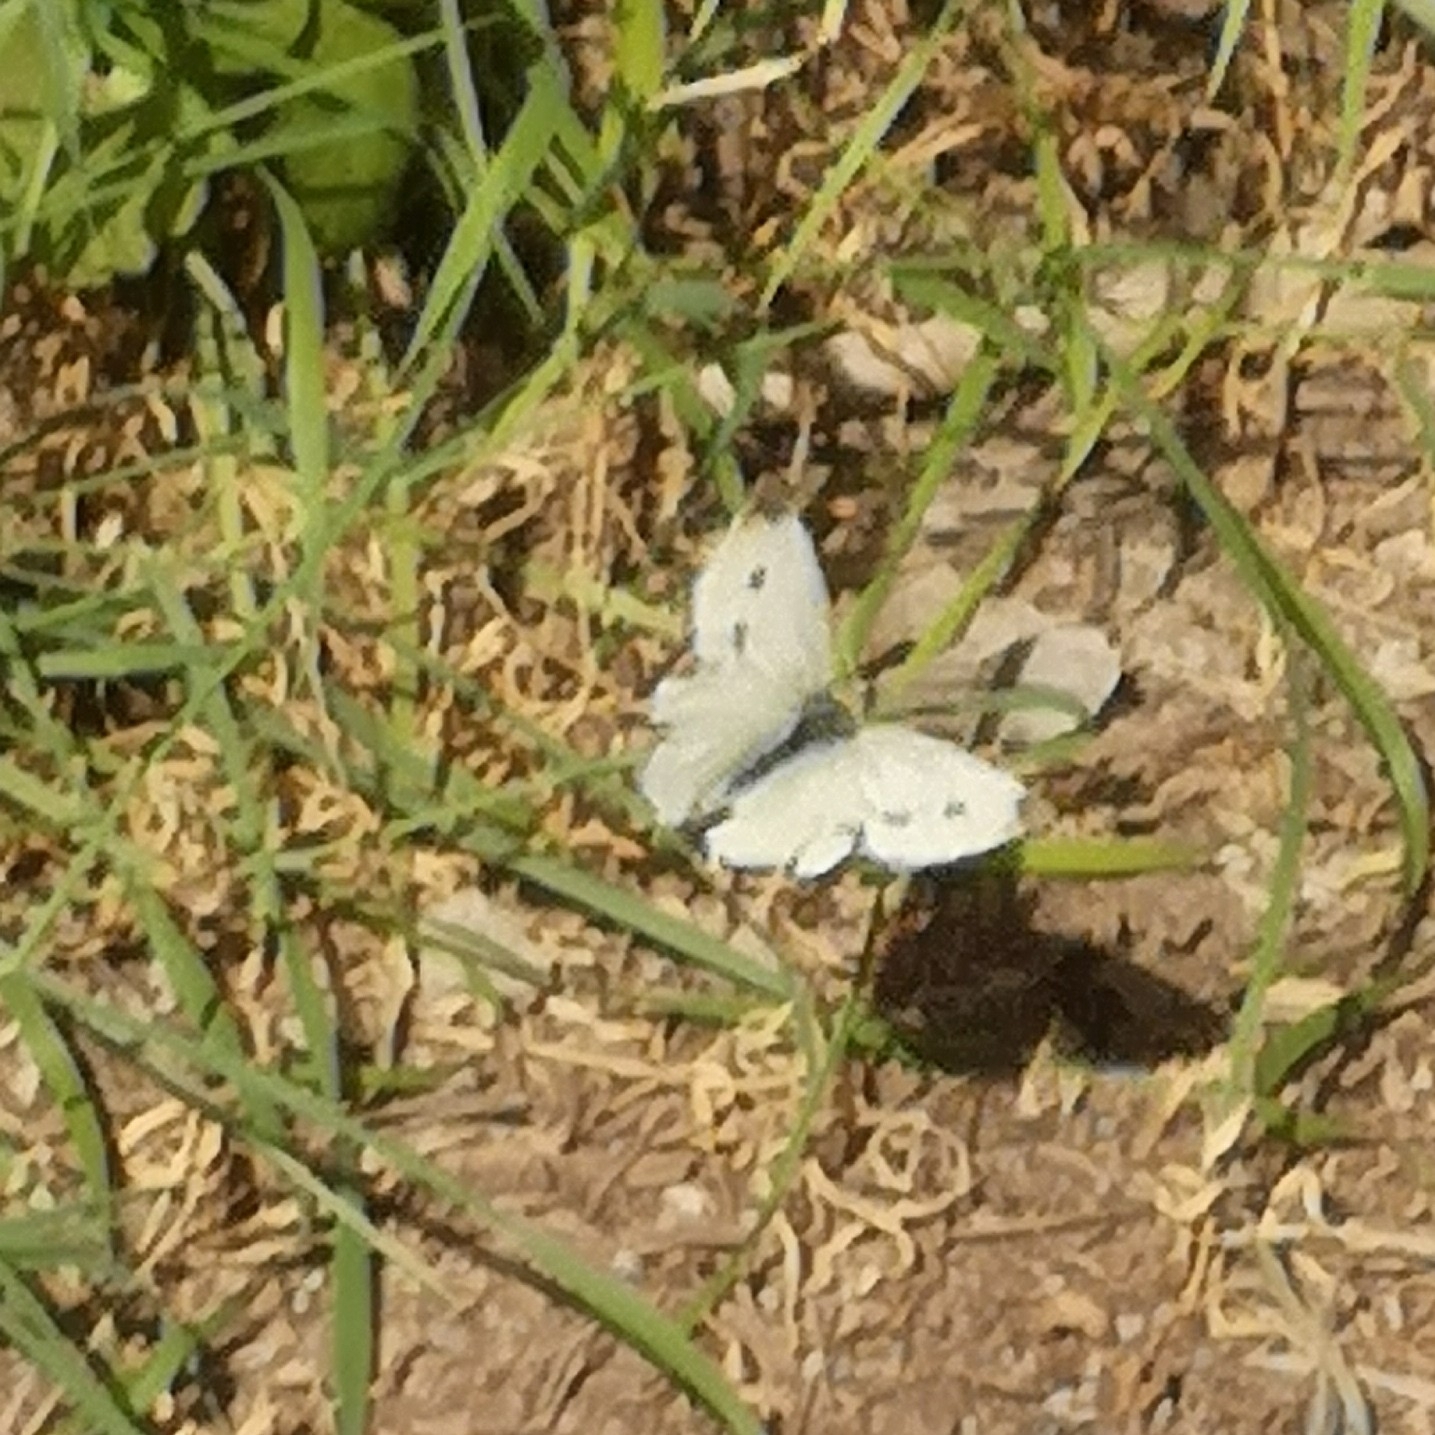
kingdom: Animalia
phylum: Arthropoda
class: Insecta
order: Lepidoptera
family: Pieridae
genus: Pieris
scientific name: Pieris rapae
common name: Small white
